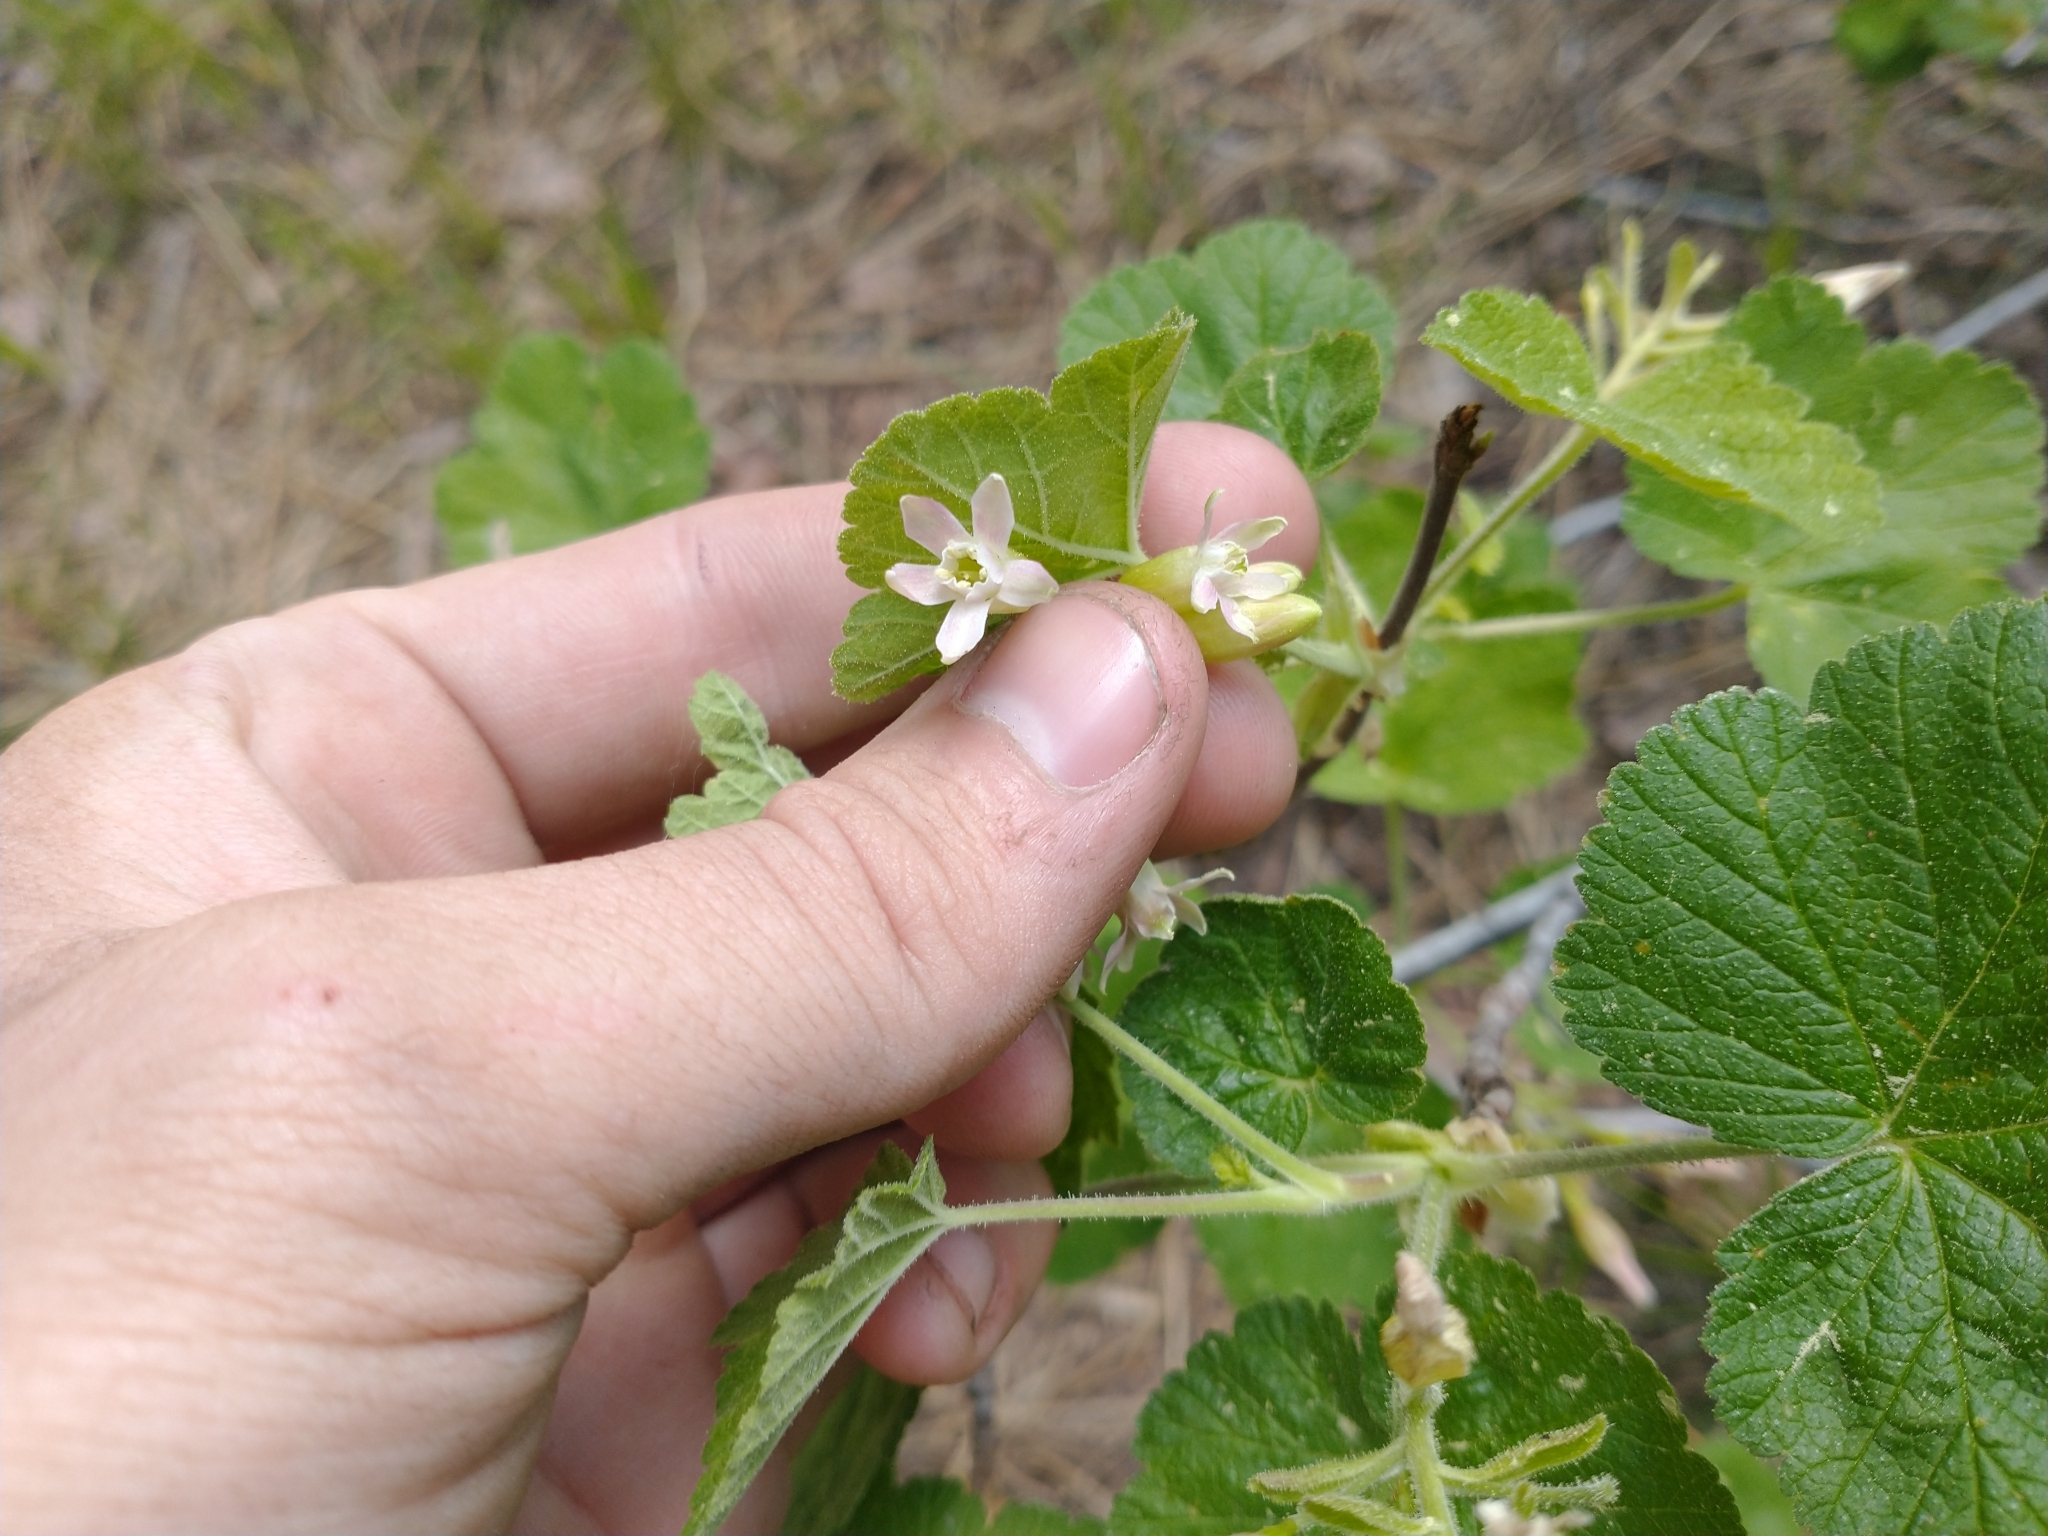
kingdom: Plantae
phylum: Tracheophyta
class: Magnoliopsida
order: Saxifragales
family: Grossulariaceae
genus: Ribes
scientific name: Ribes viscosissimum
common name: Sticky currant
